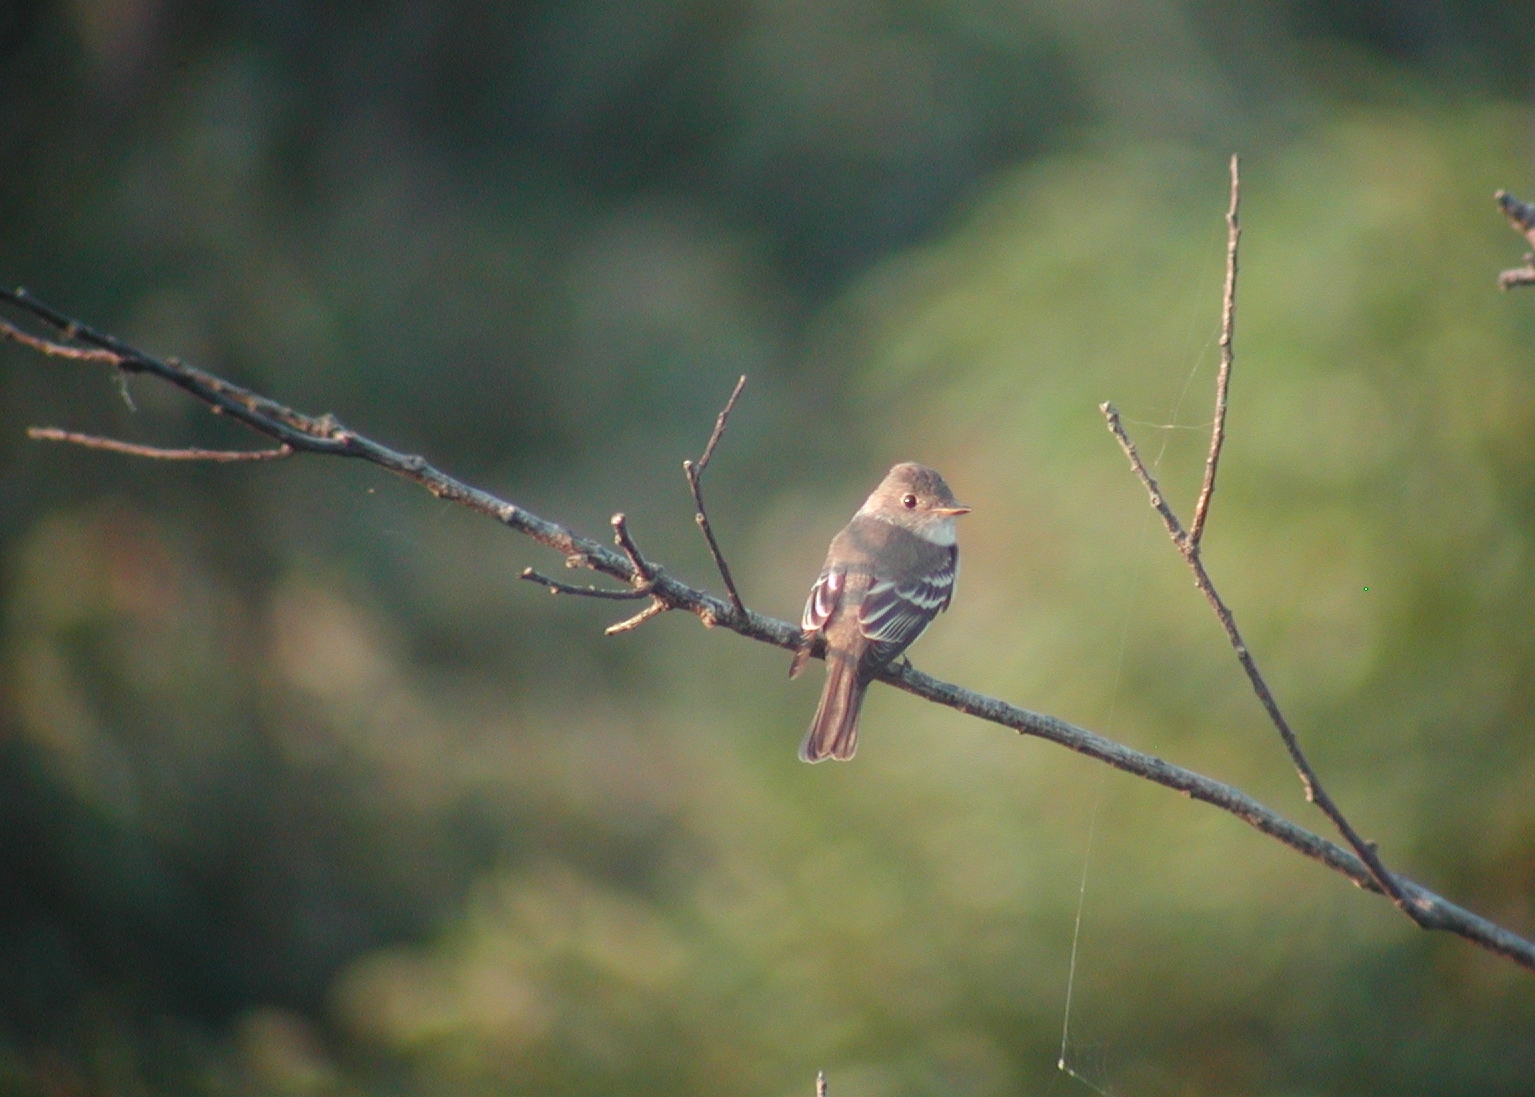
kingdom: Animalia
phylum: Chordata
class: Aves
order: Passeriformes
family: Tyrannidae
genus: Contopus
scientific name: Contopus virens
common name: Eastern wood-pewee
